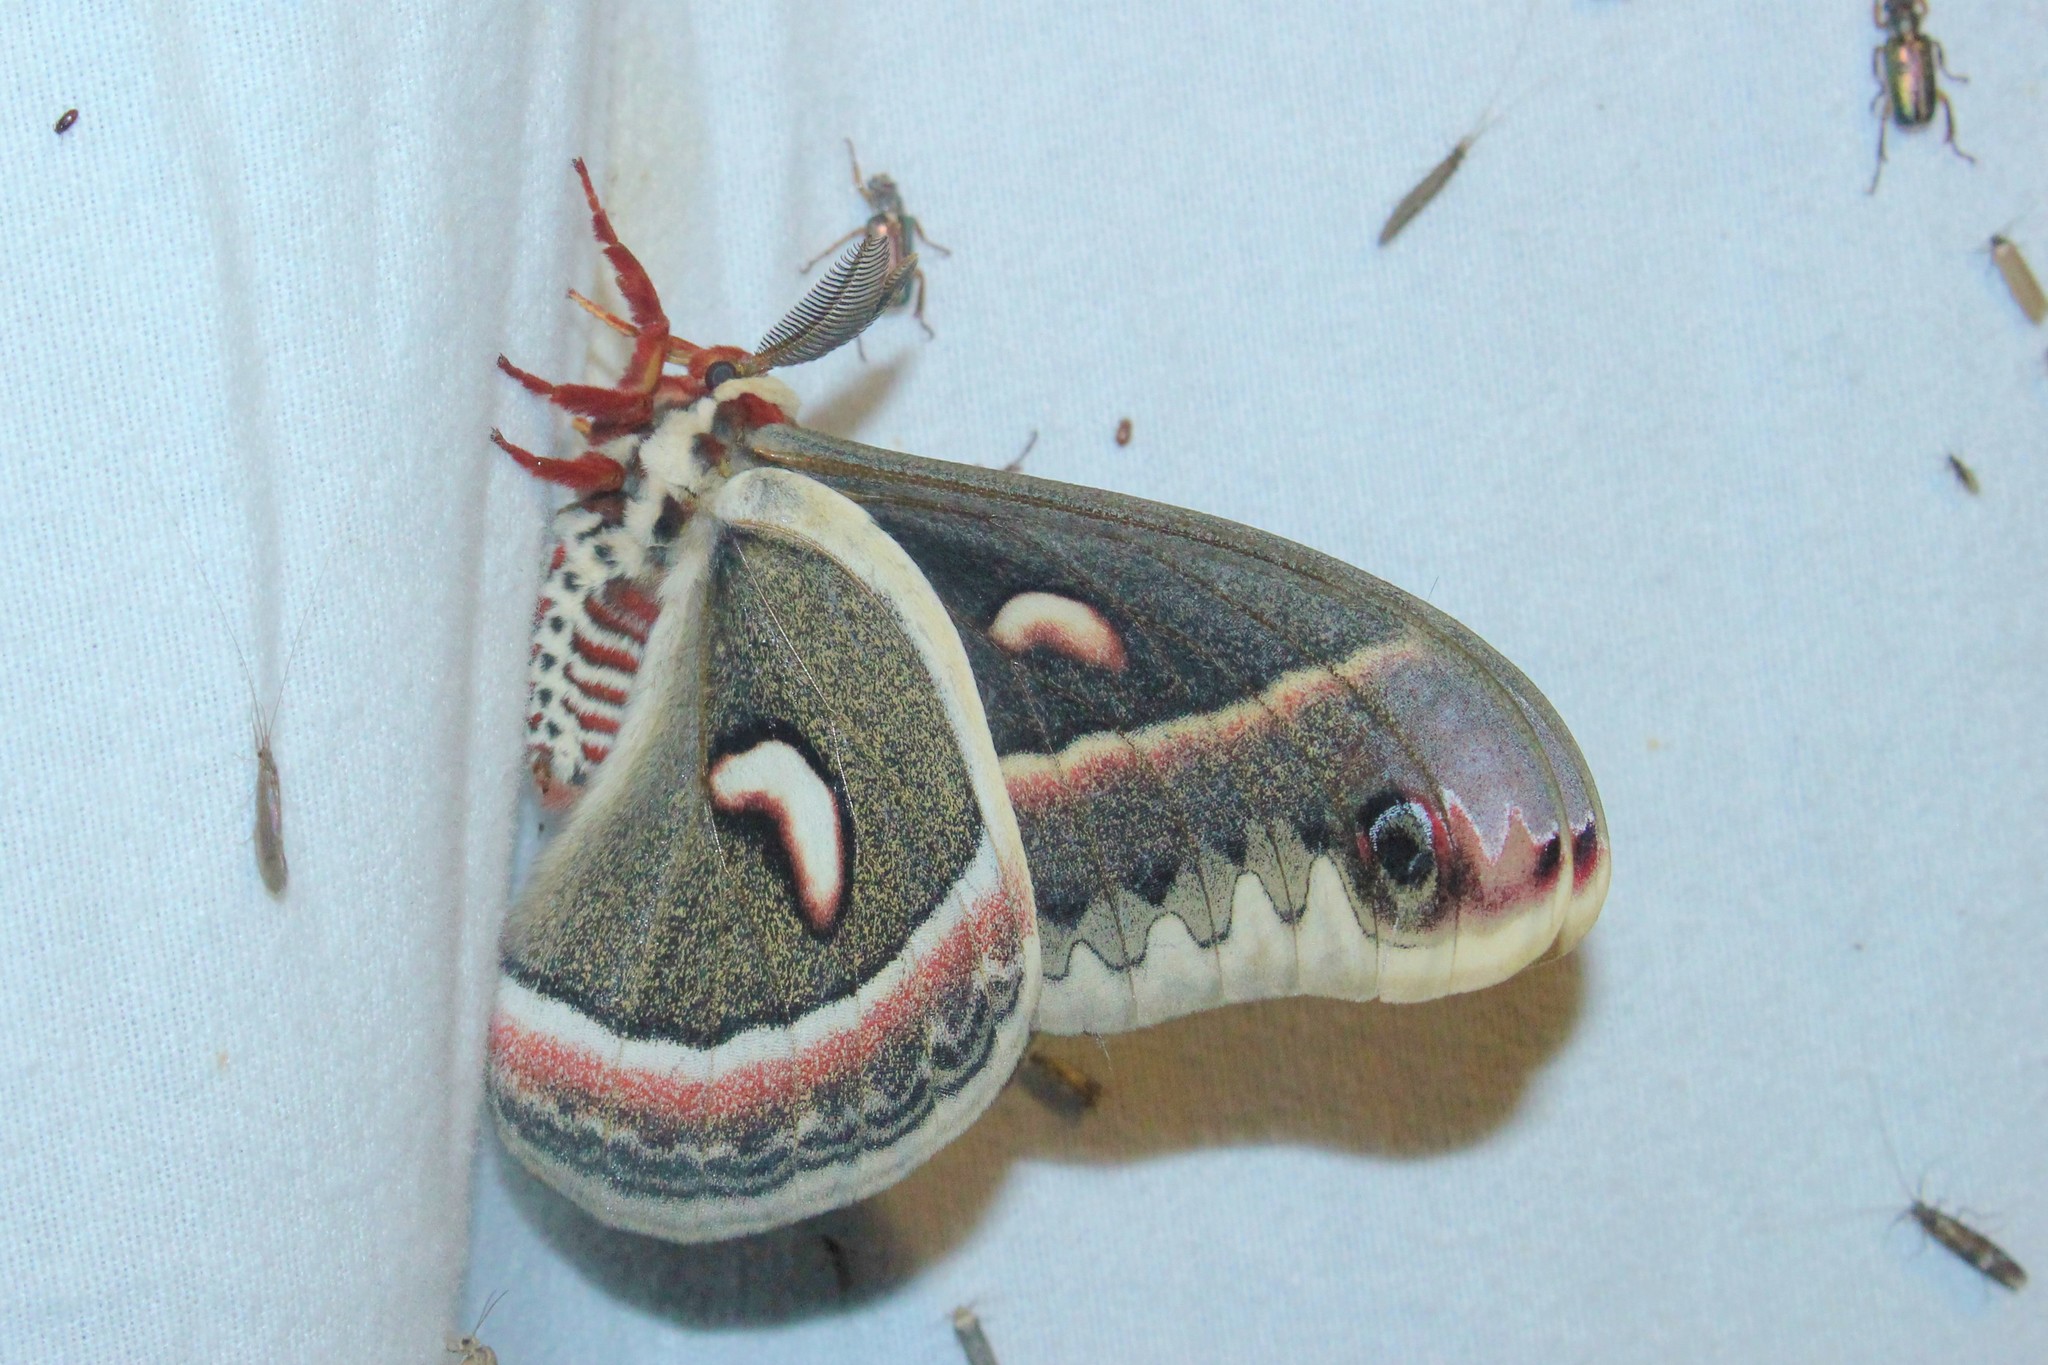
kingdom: Animalia
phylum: Arthropoda
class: Insecta
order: Lepidoptera
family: Saturniidae
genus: Hyalophora
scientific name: Hyalophora cecropia
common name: Cecropia silkmoth
